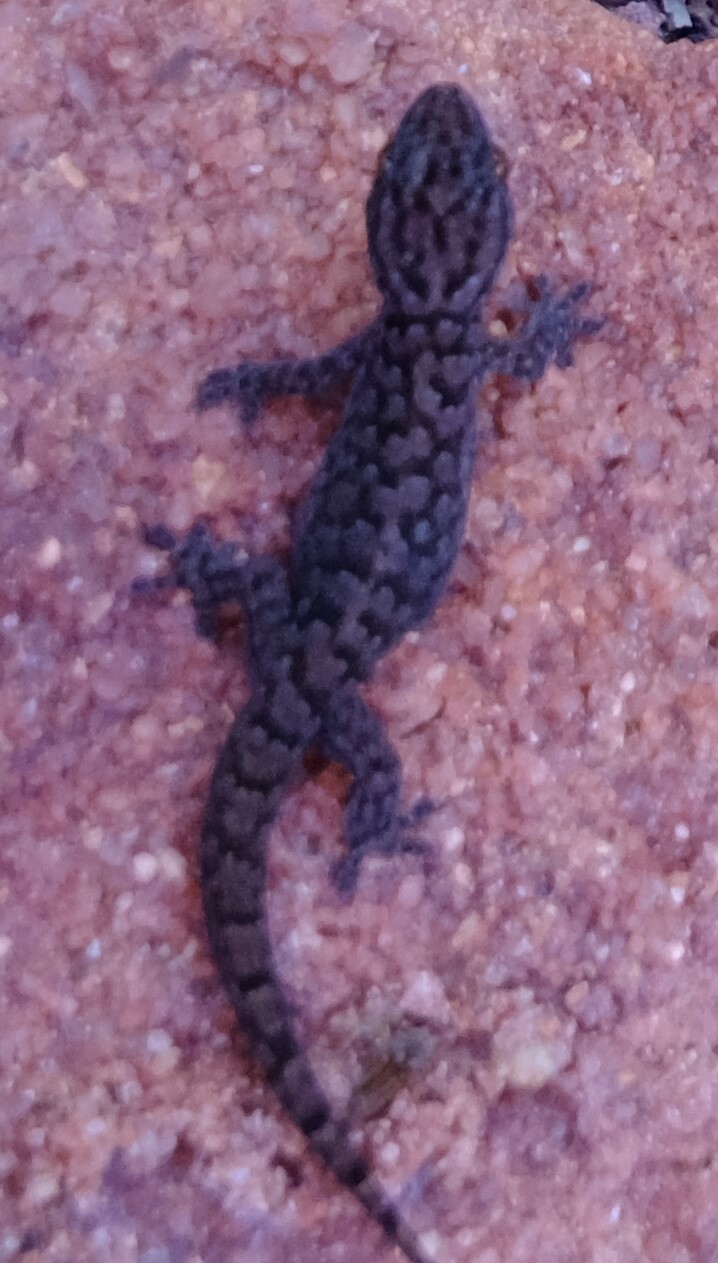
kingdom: Animalia
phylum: Chordata
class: Squamata
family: Gekkonidae
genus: Gehyra
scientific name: Gehyra variegata
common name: Tree dtella
